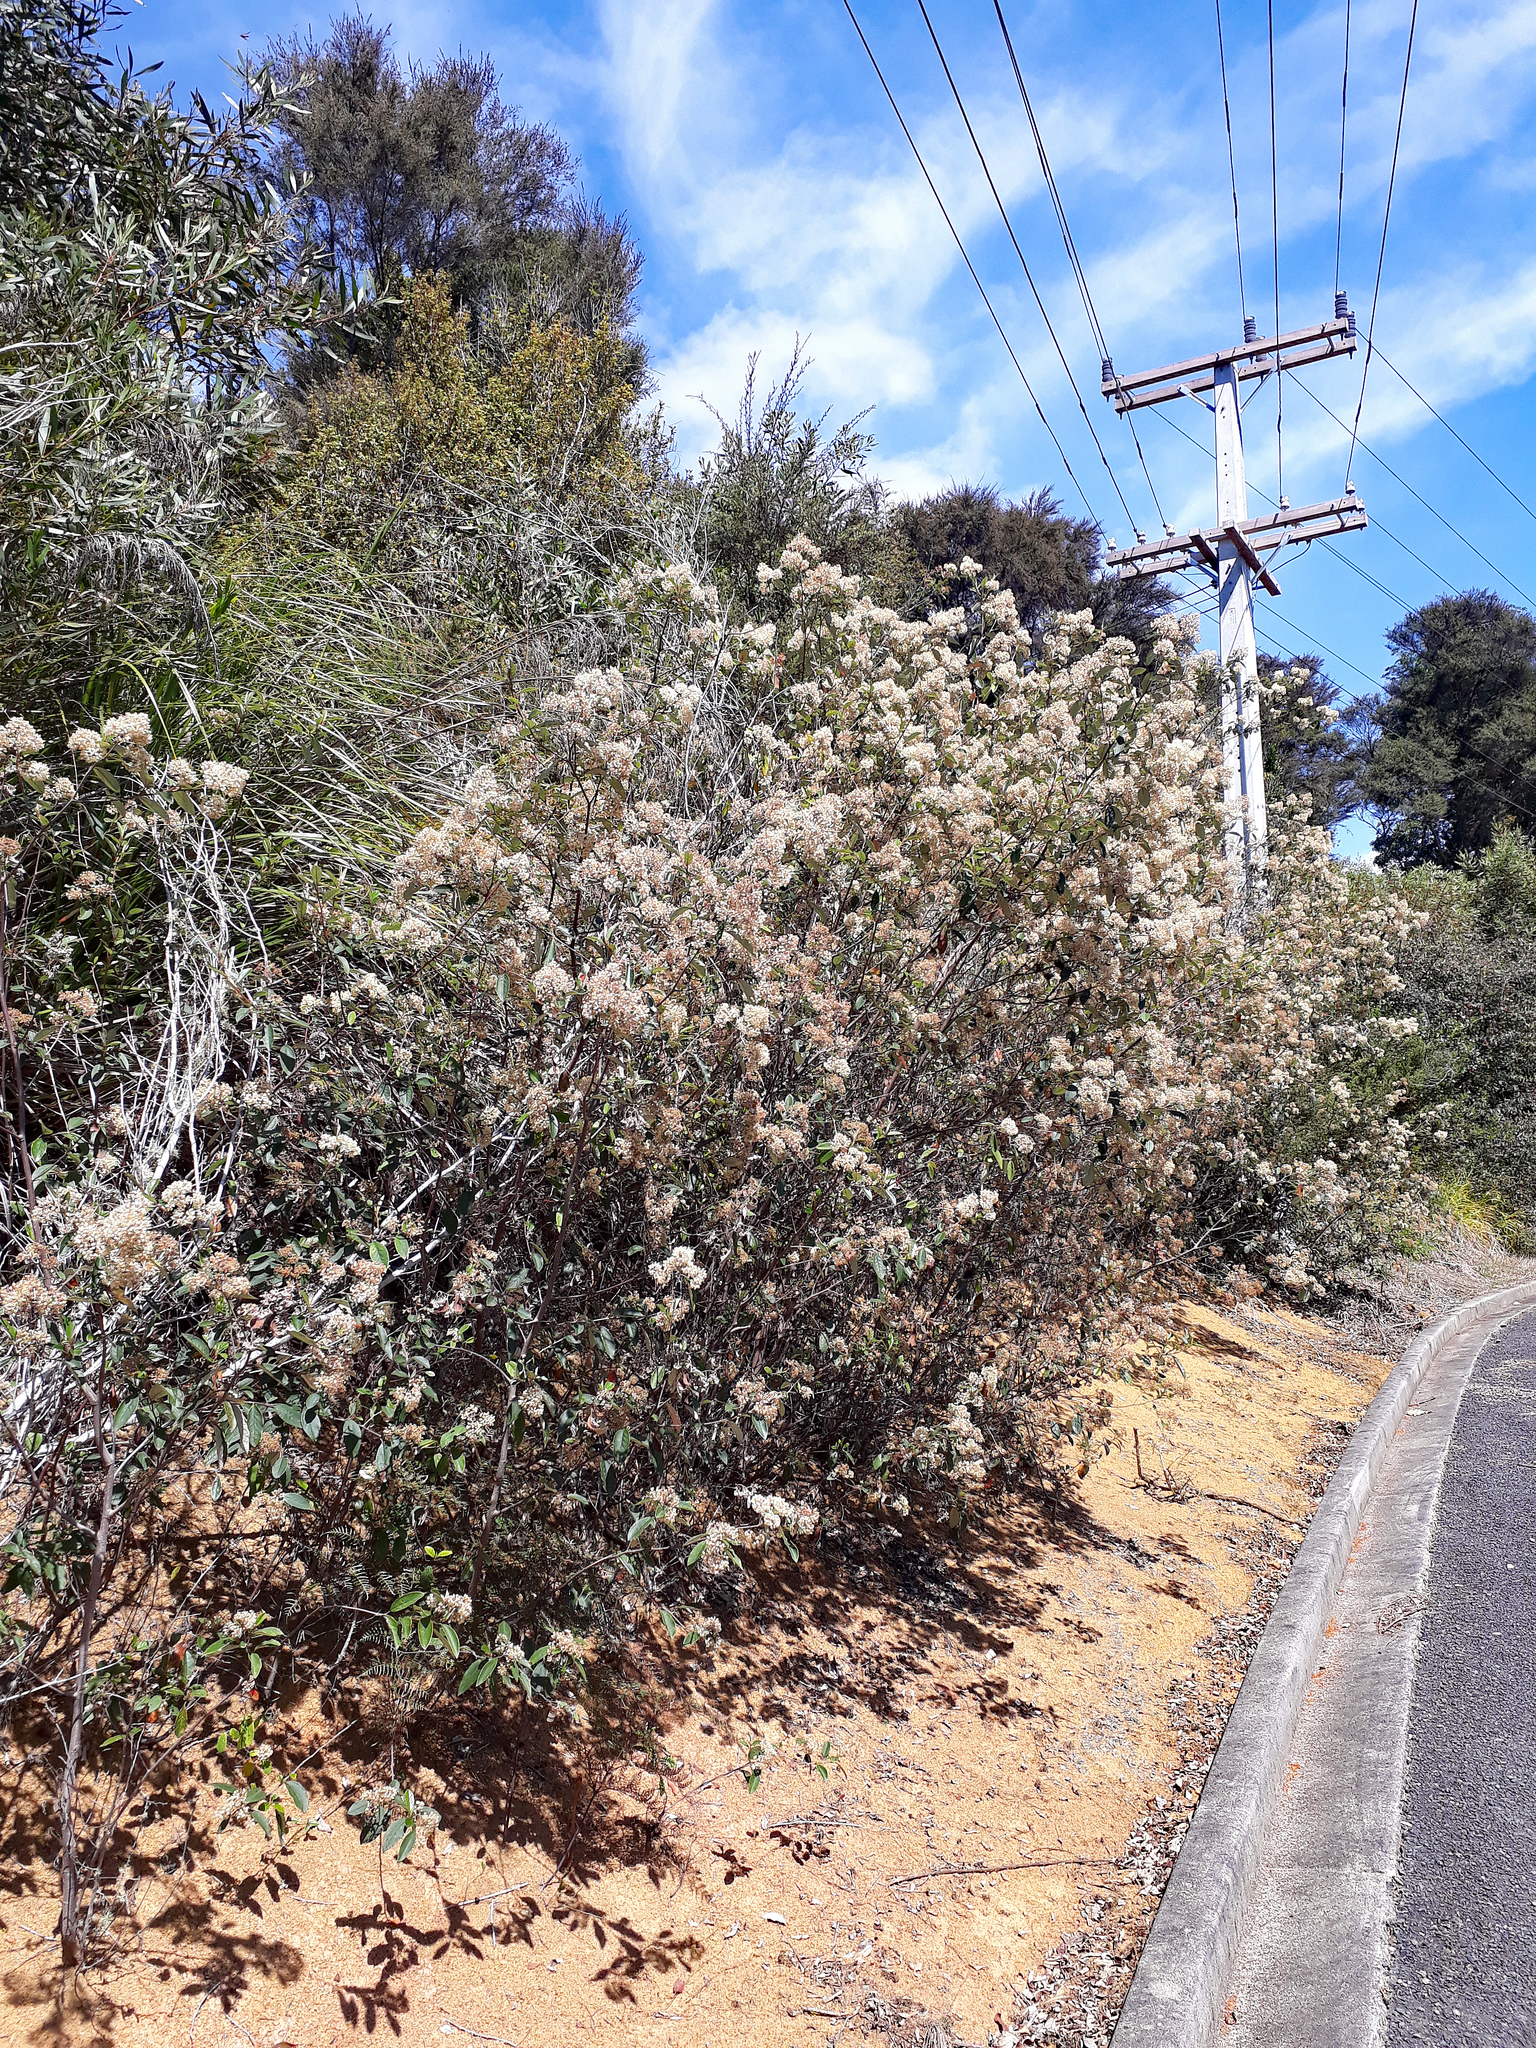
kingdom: Plantae
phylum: Tracheophyta
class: Magnoliopsida
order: Rosales
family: Rhamnaceae
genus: Pomaderris
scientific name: Pomaderris hamiltonii
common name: Pale-flowered kumarahou
